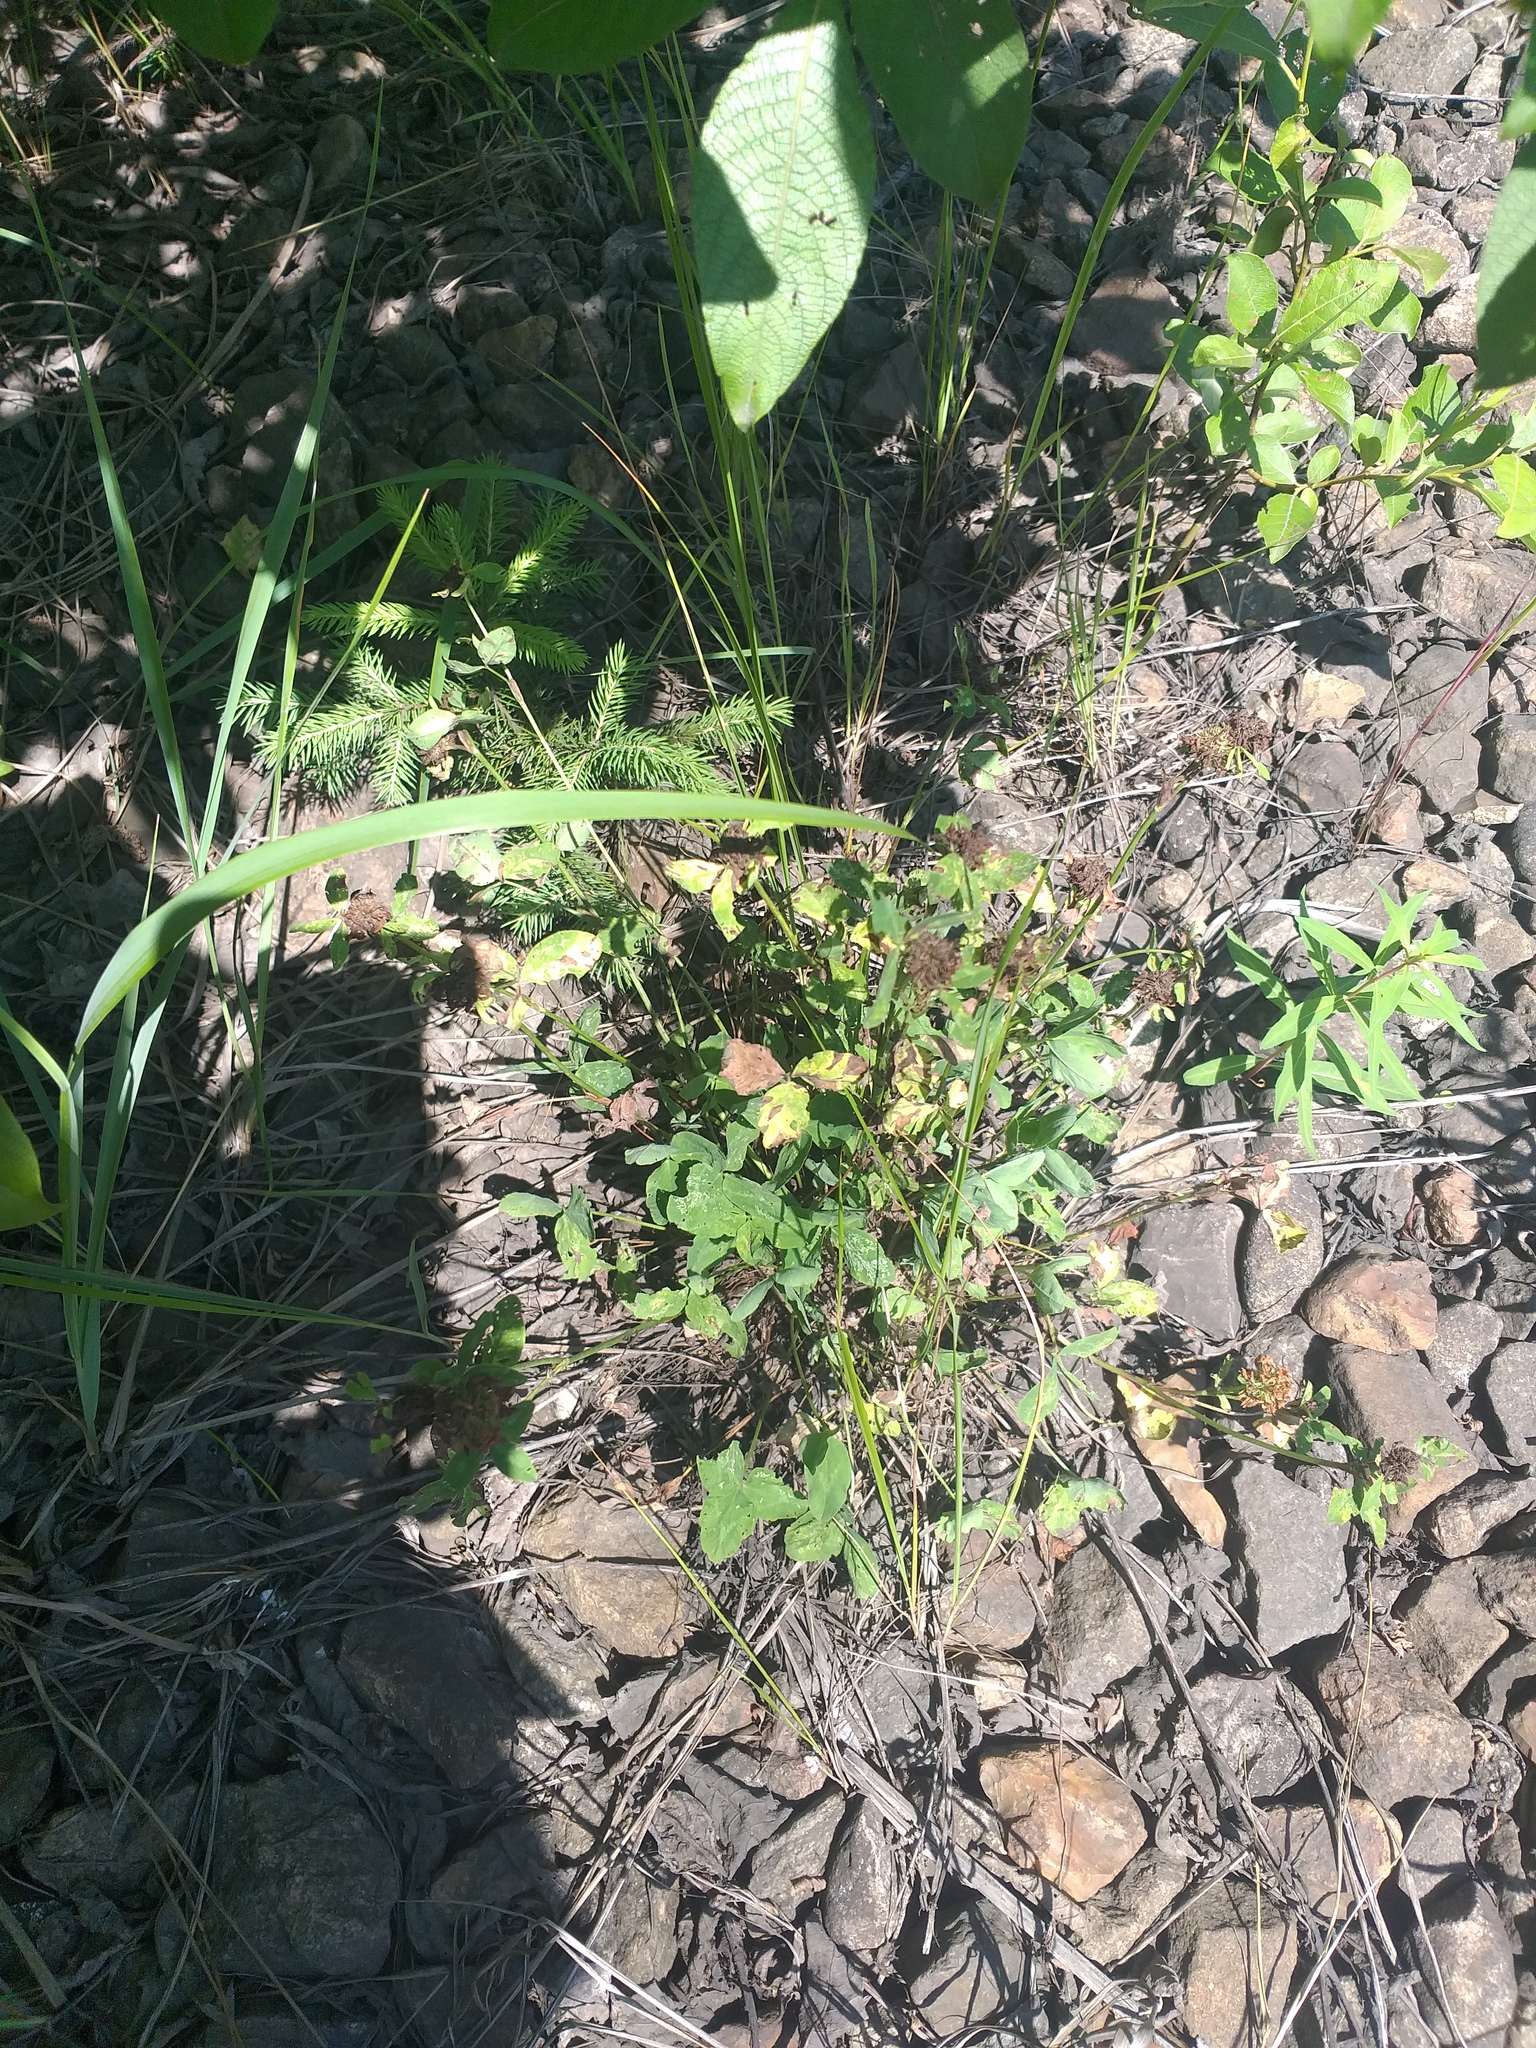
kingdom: Plantae
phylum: Tracheophyta
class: Magnoliopsida
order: Fabales
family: Fabaceae
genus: Trifolium
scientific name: Trifolium pratense
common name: Red clover
